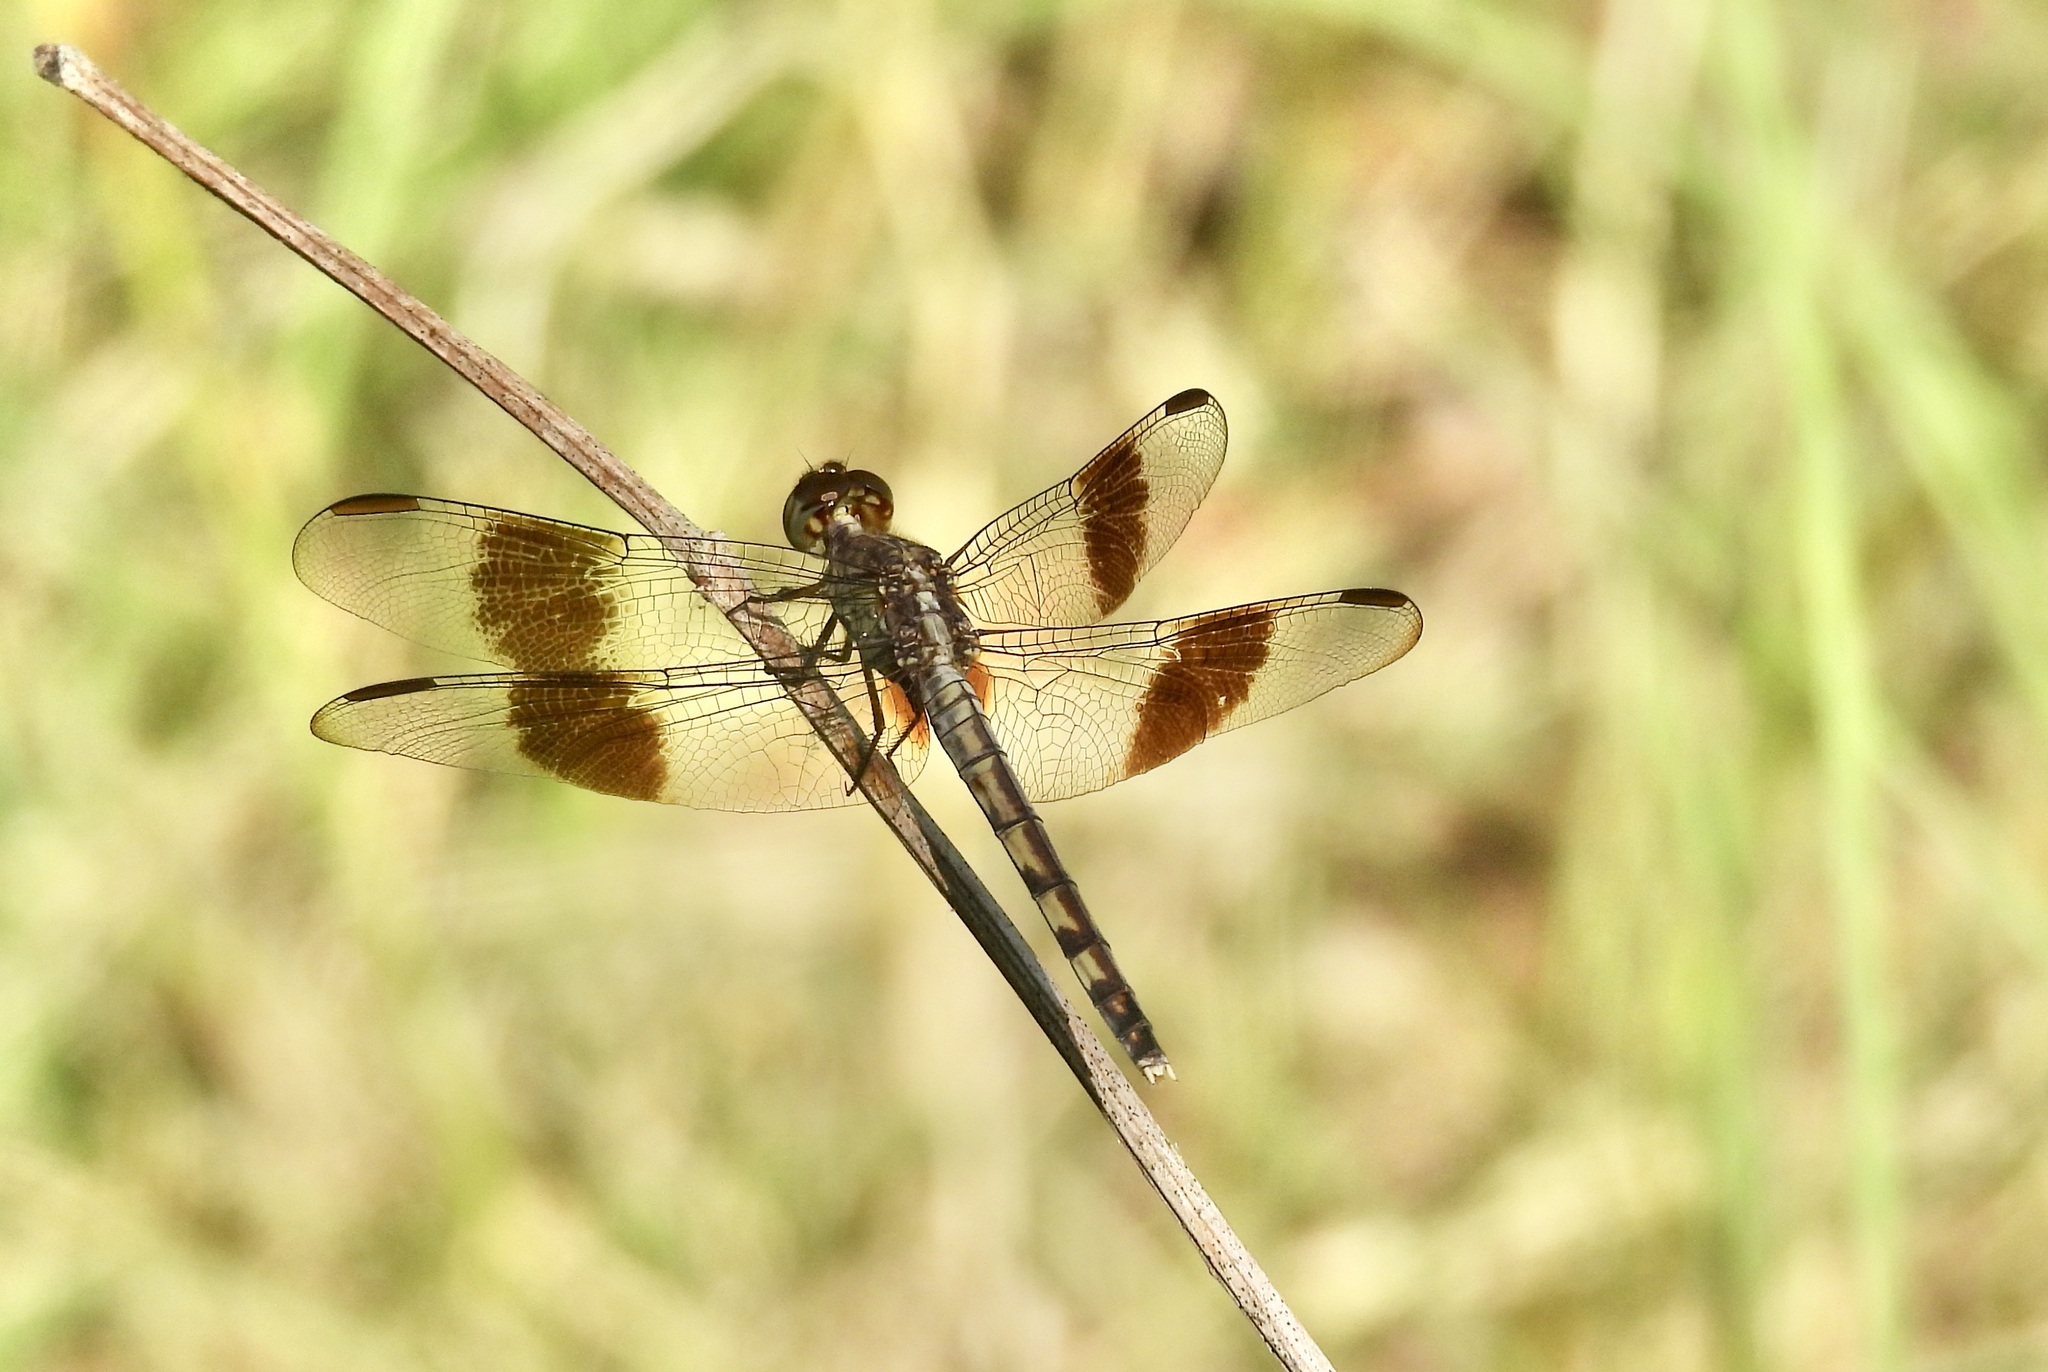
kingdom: Animalia
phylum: Arthropoda
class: Insecta
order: Odonata
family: Libellulidae
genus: Erythrodiplax
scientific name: Erythrodiplax umbrata
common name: Band-winged dragonlet
